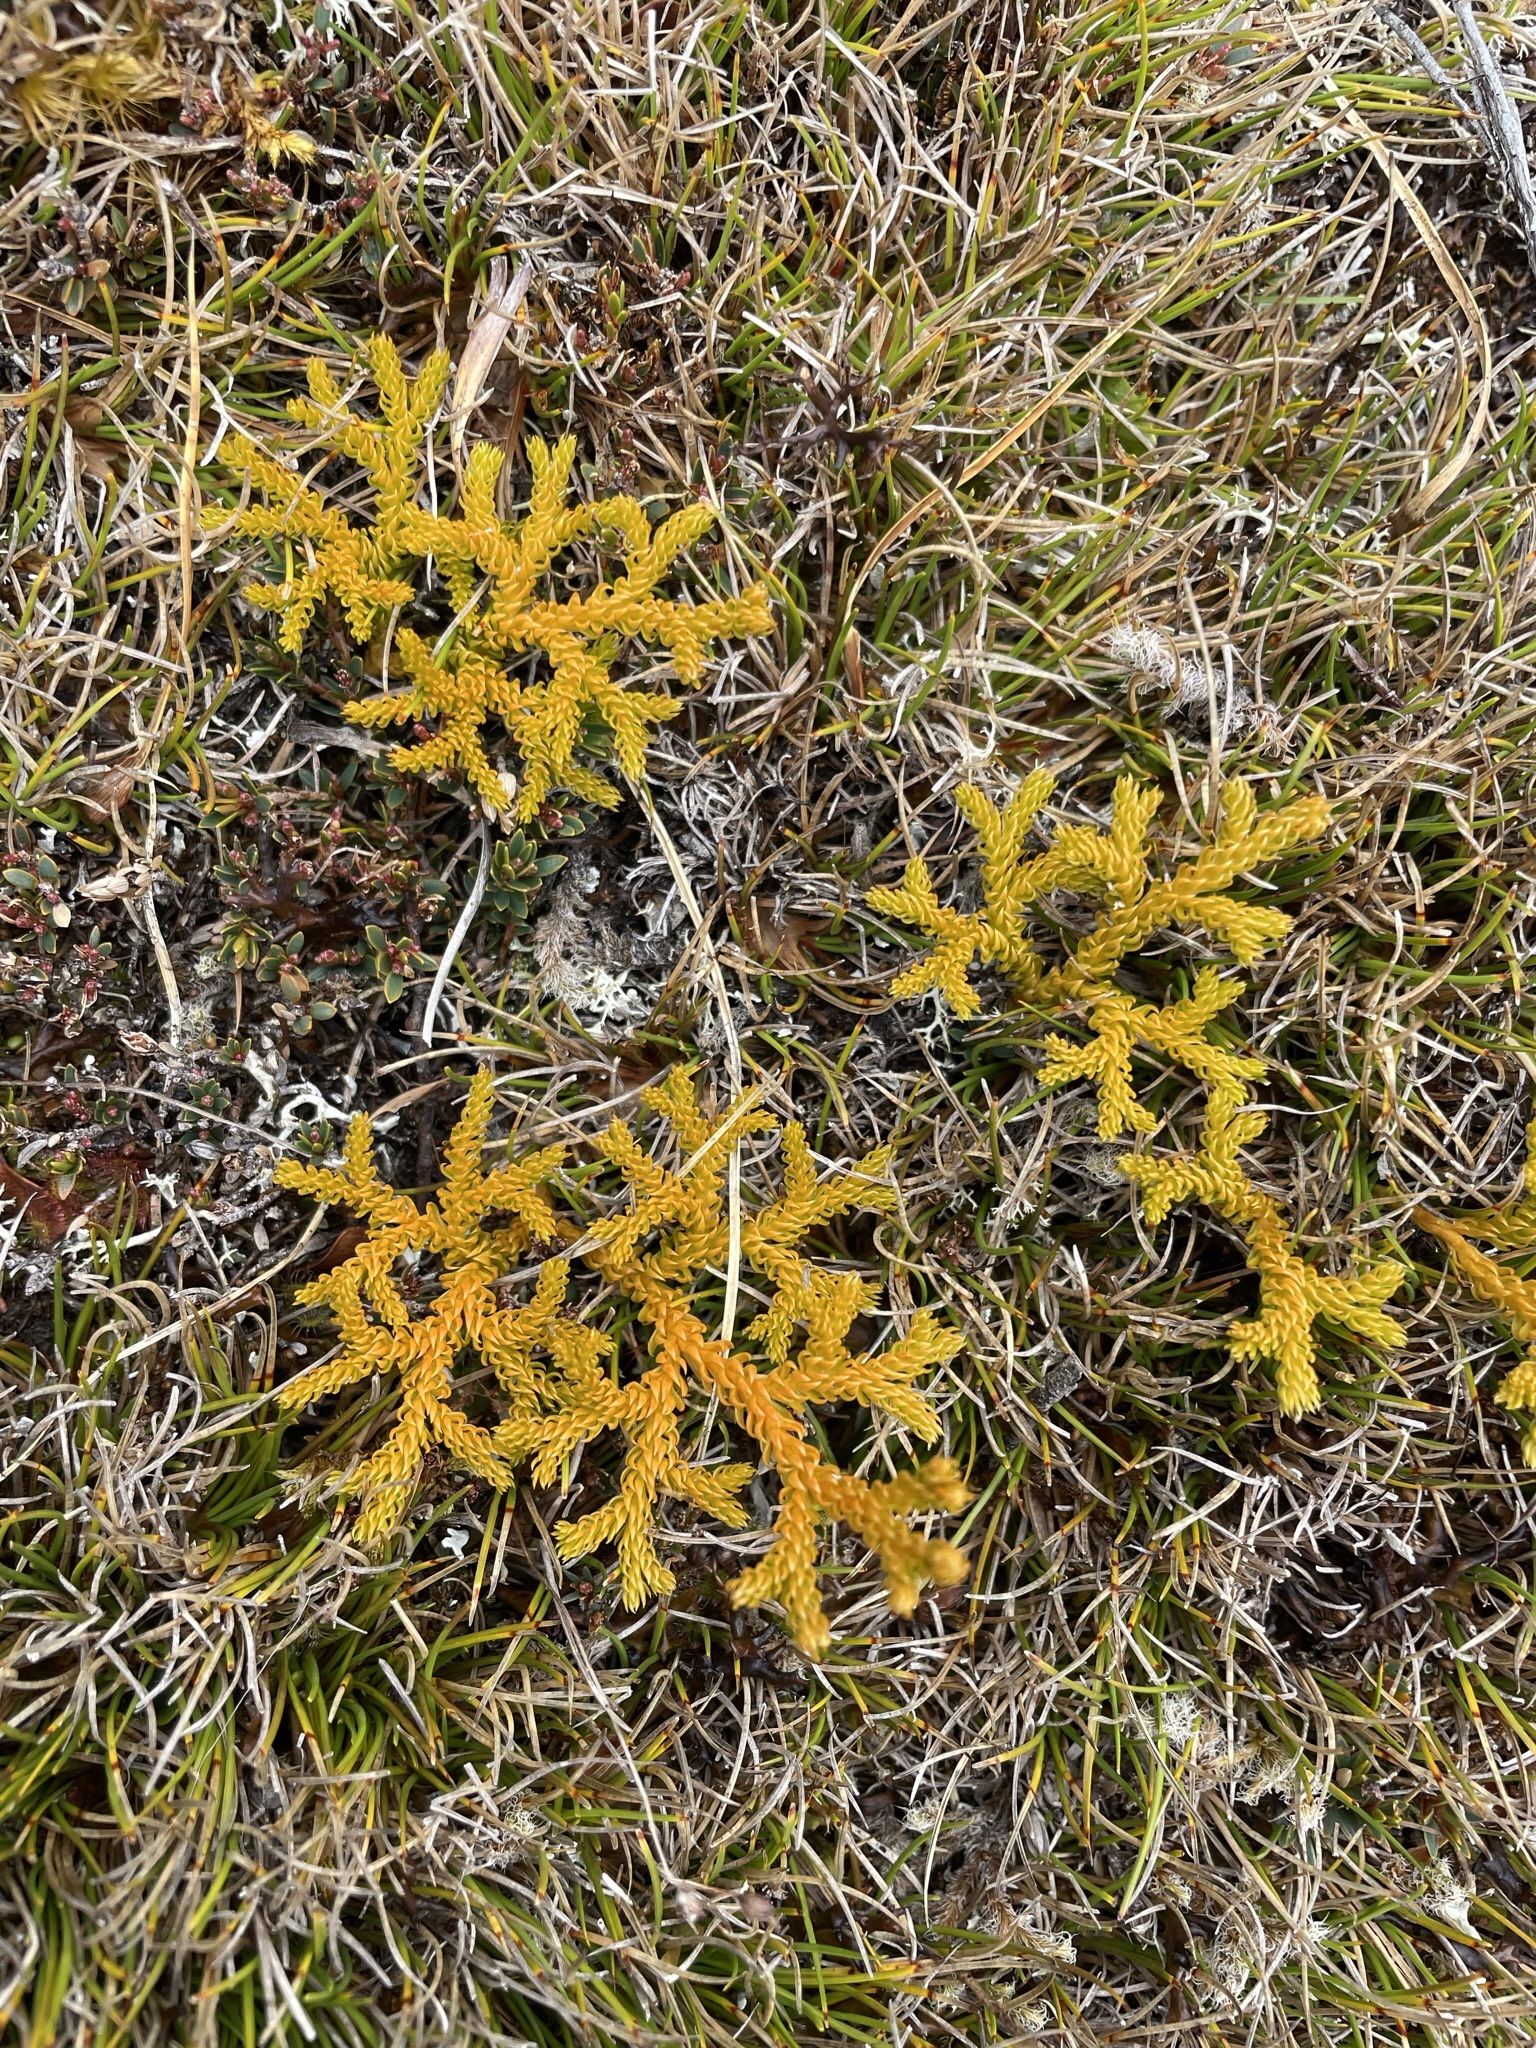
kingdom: Plantae
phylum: Tracheophyta
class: Lycopodiopsida
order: Lycopodiales
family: Lycopodiaceae
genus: Austrolycopodium
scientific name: Austrolycopodium fastigiatum
